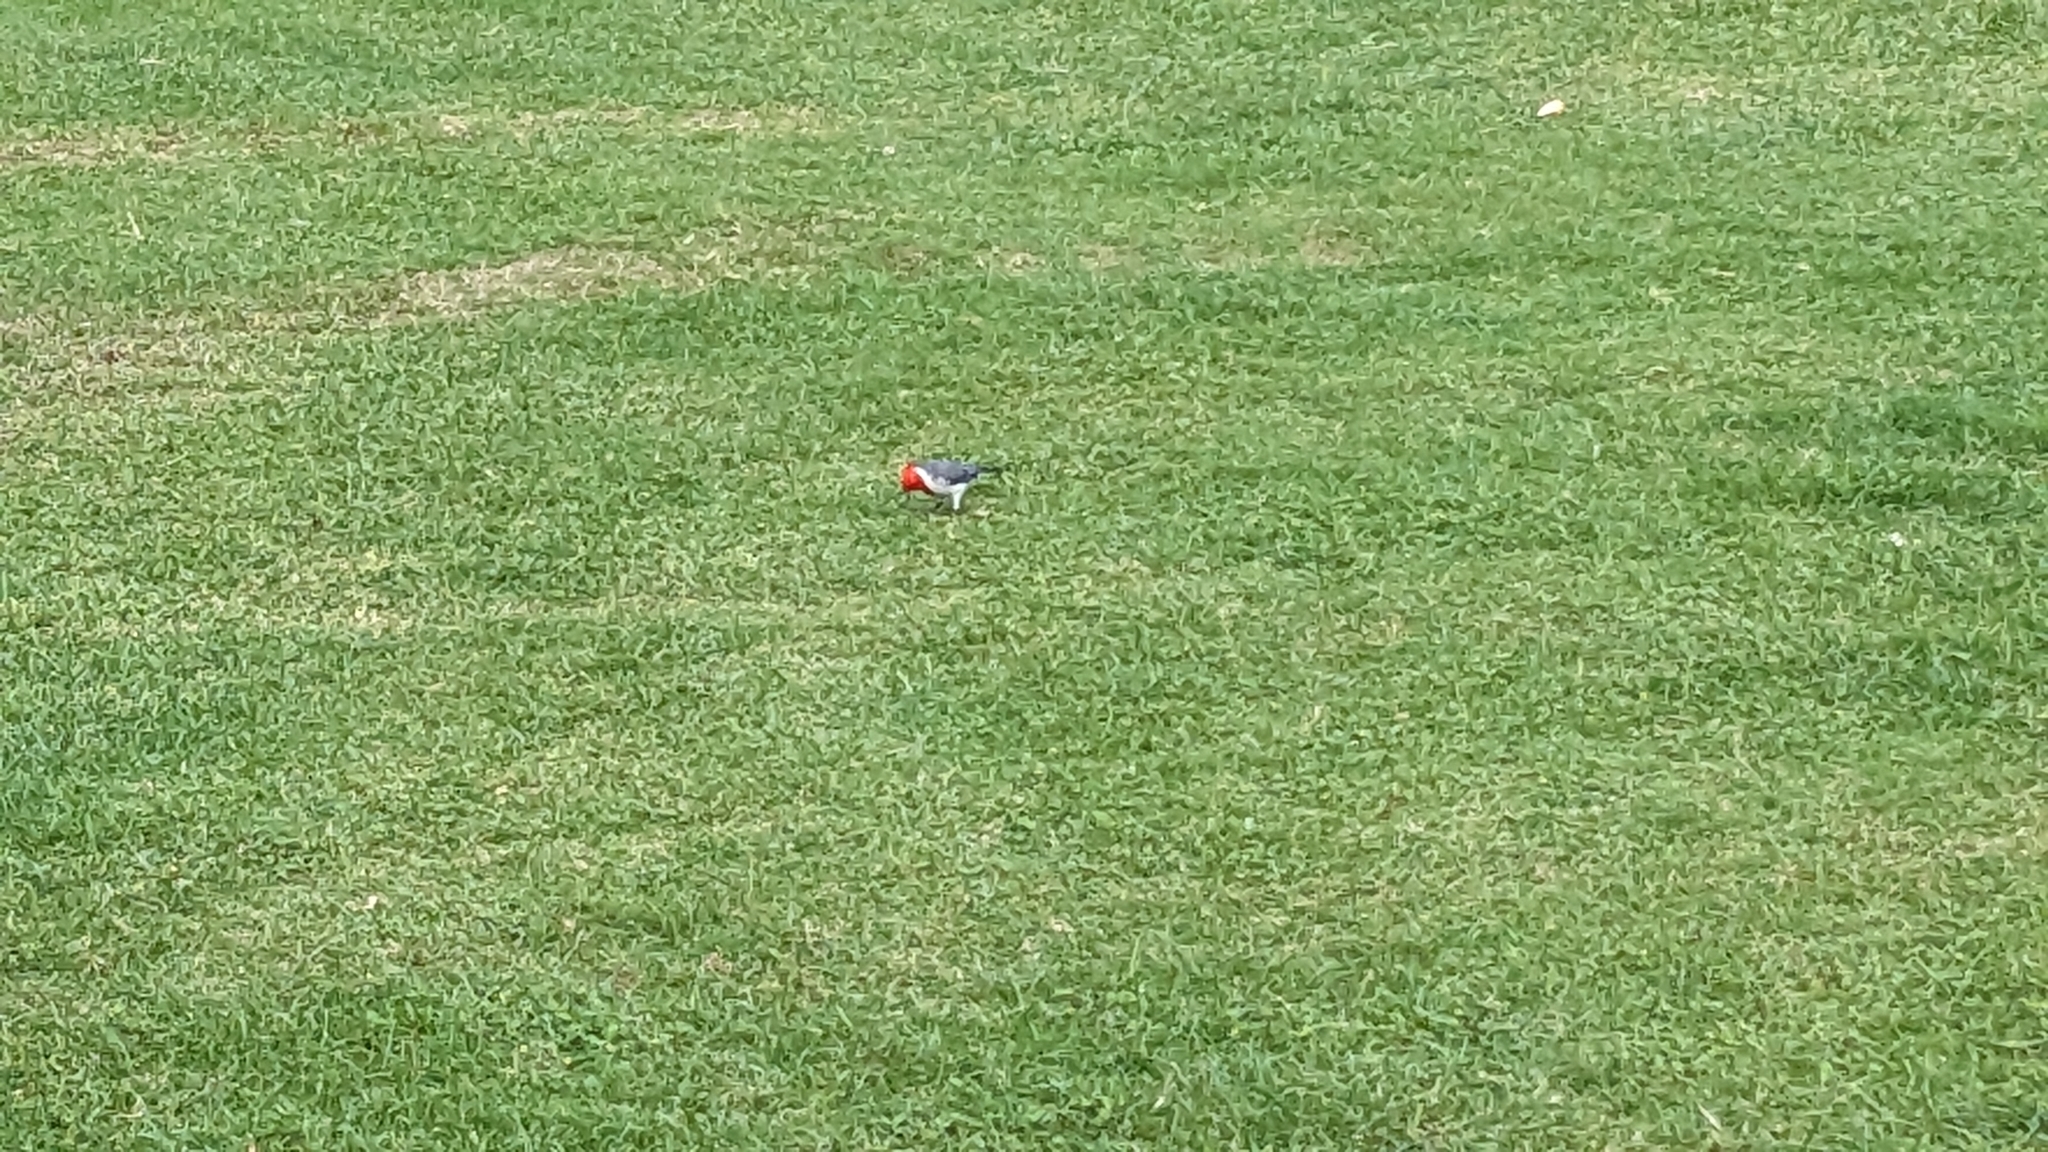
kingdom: Animalia
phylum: Chordata
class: Aves
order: Passeriformes
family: Thraupidae
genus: Paroaria
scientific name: Paroaria coronata
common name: Red-crested cardinal
